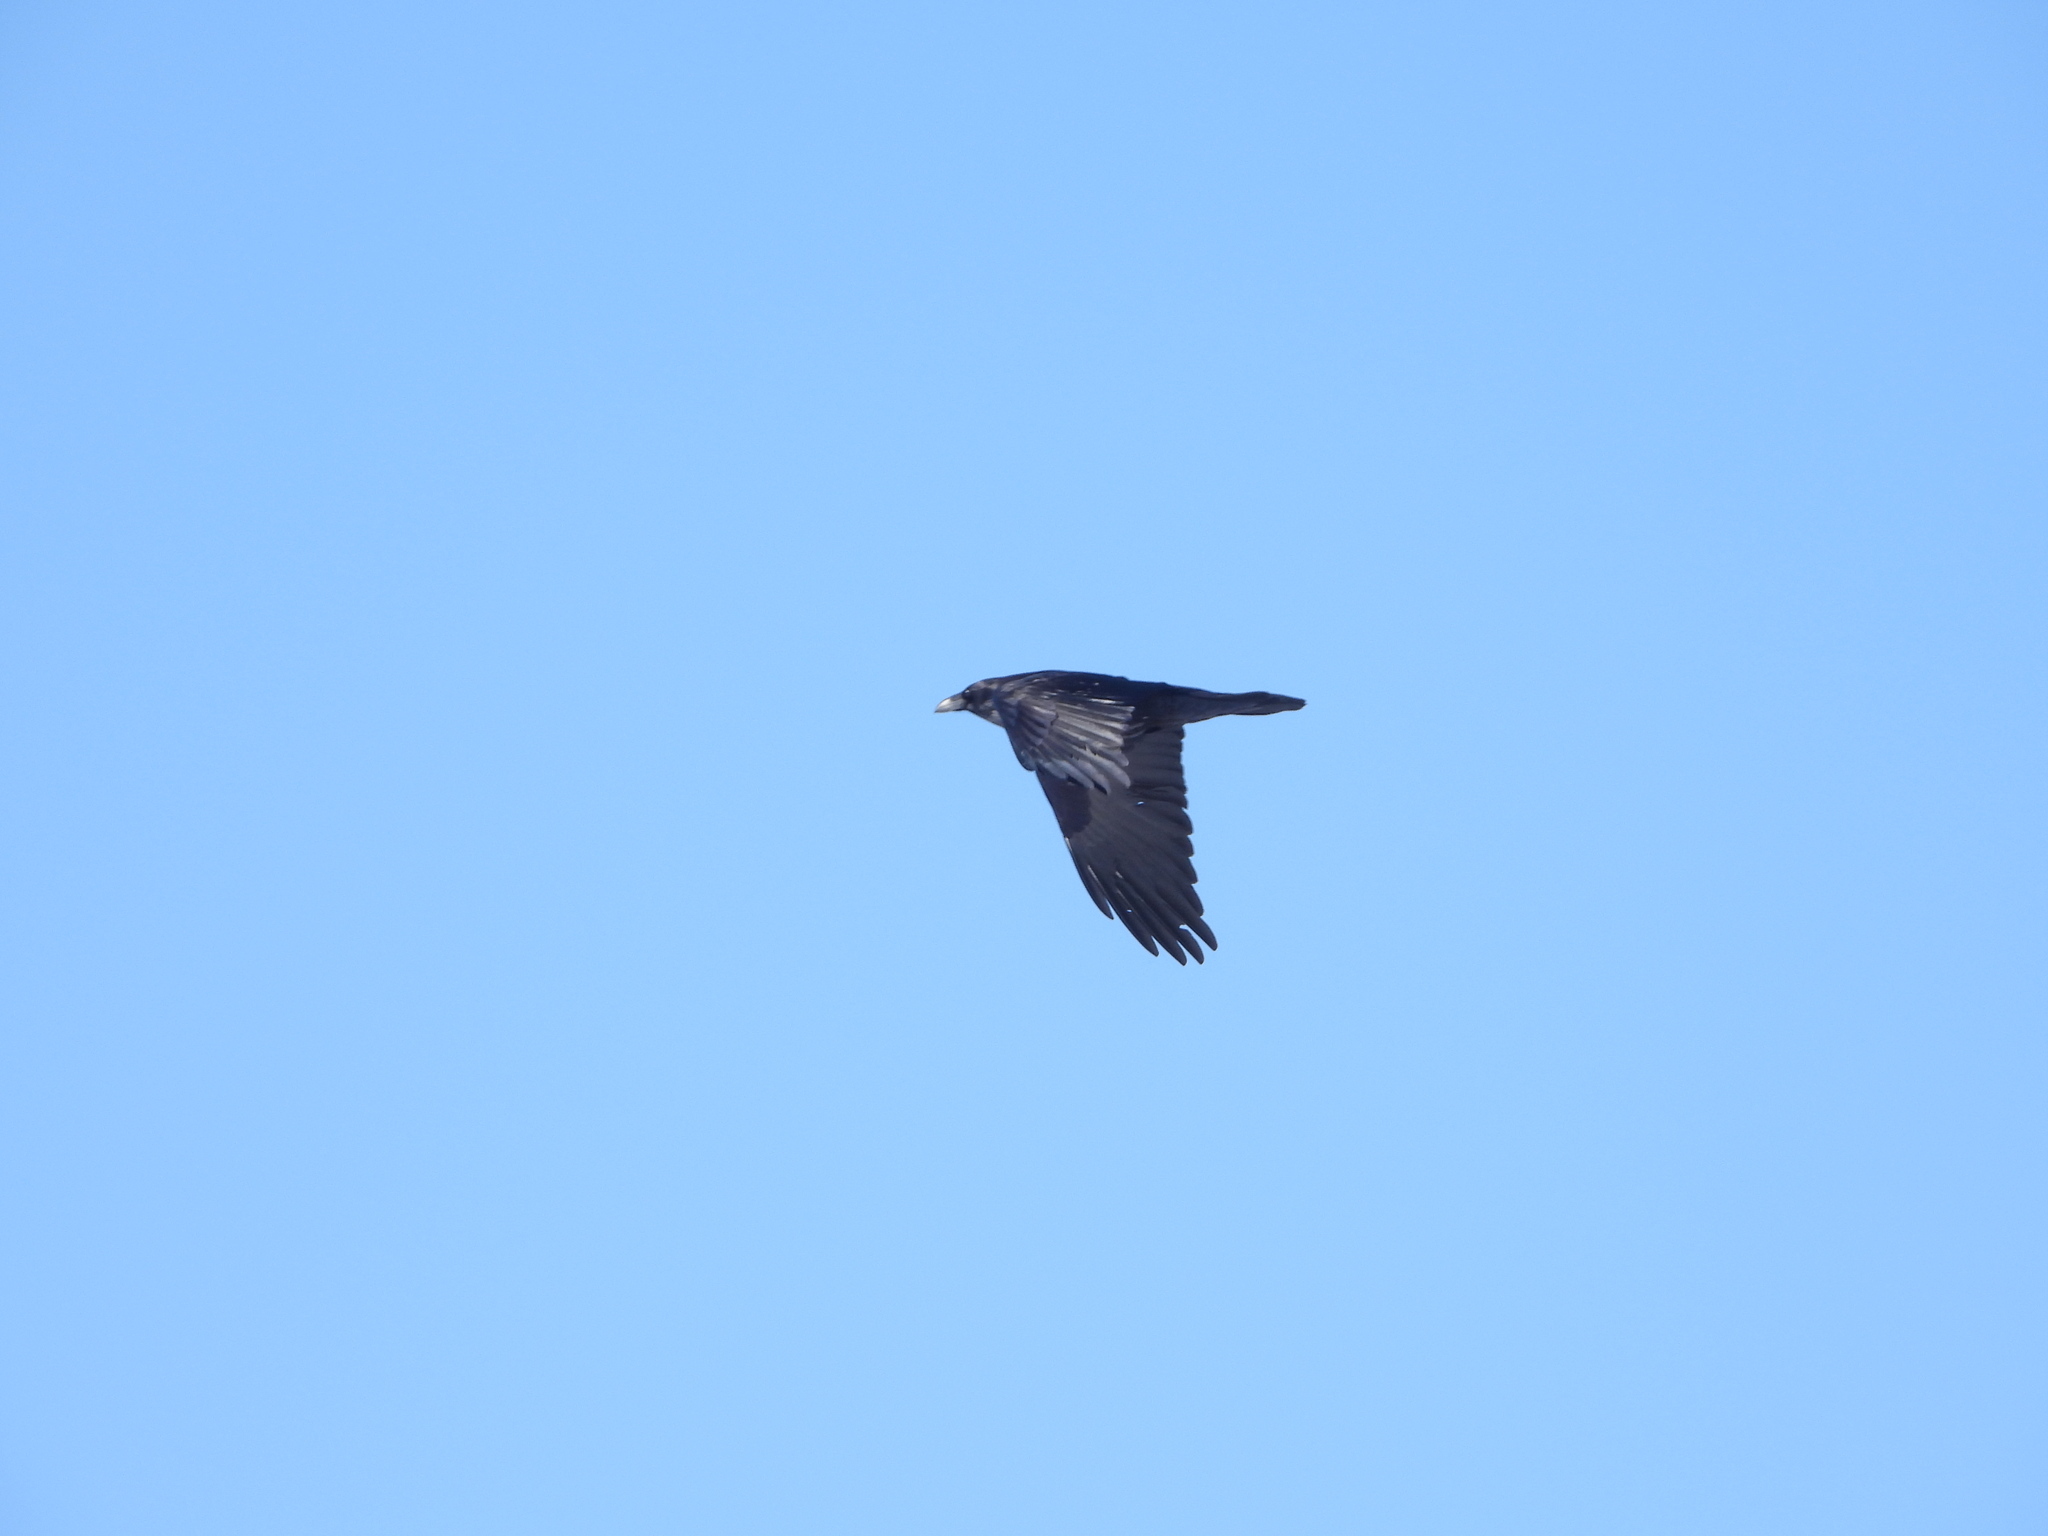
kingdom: Animalia
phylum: Chordata
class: Aves
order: Passeriformes
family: Corvidae
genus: Corvus
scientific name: Corvus corax
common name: Common raven
